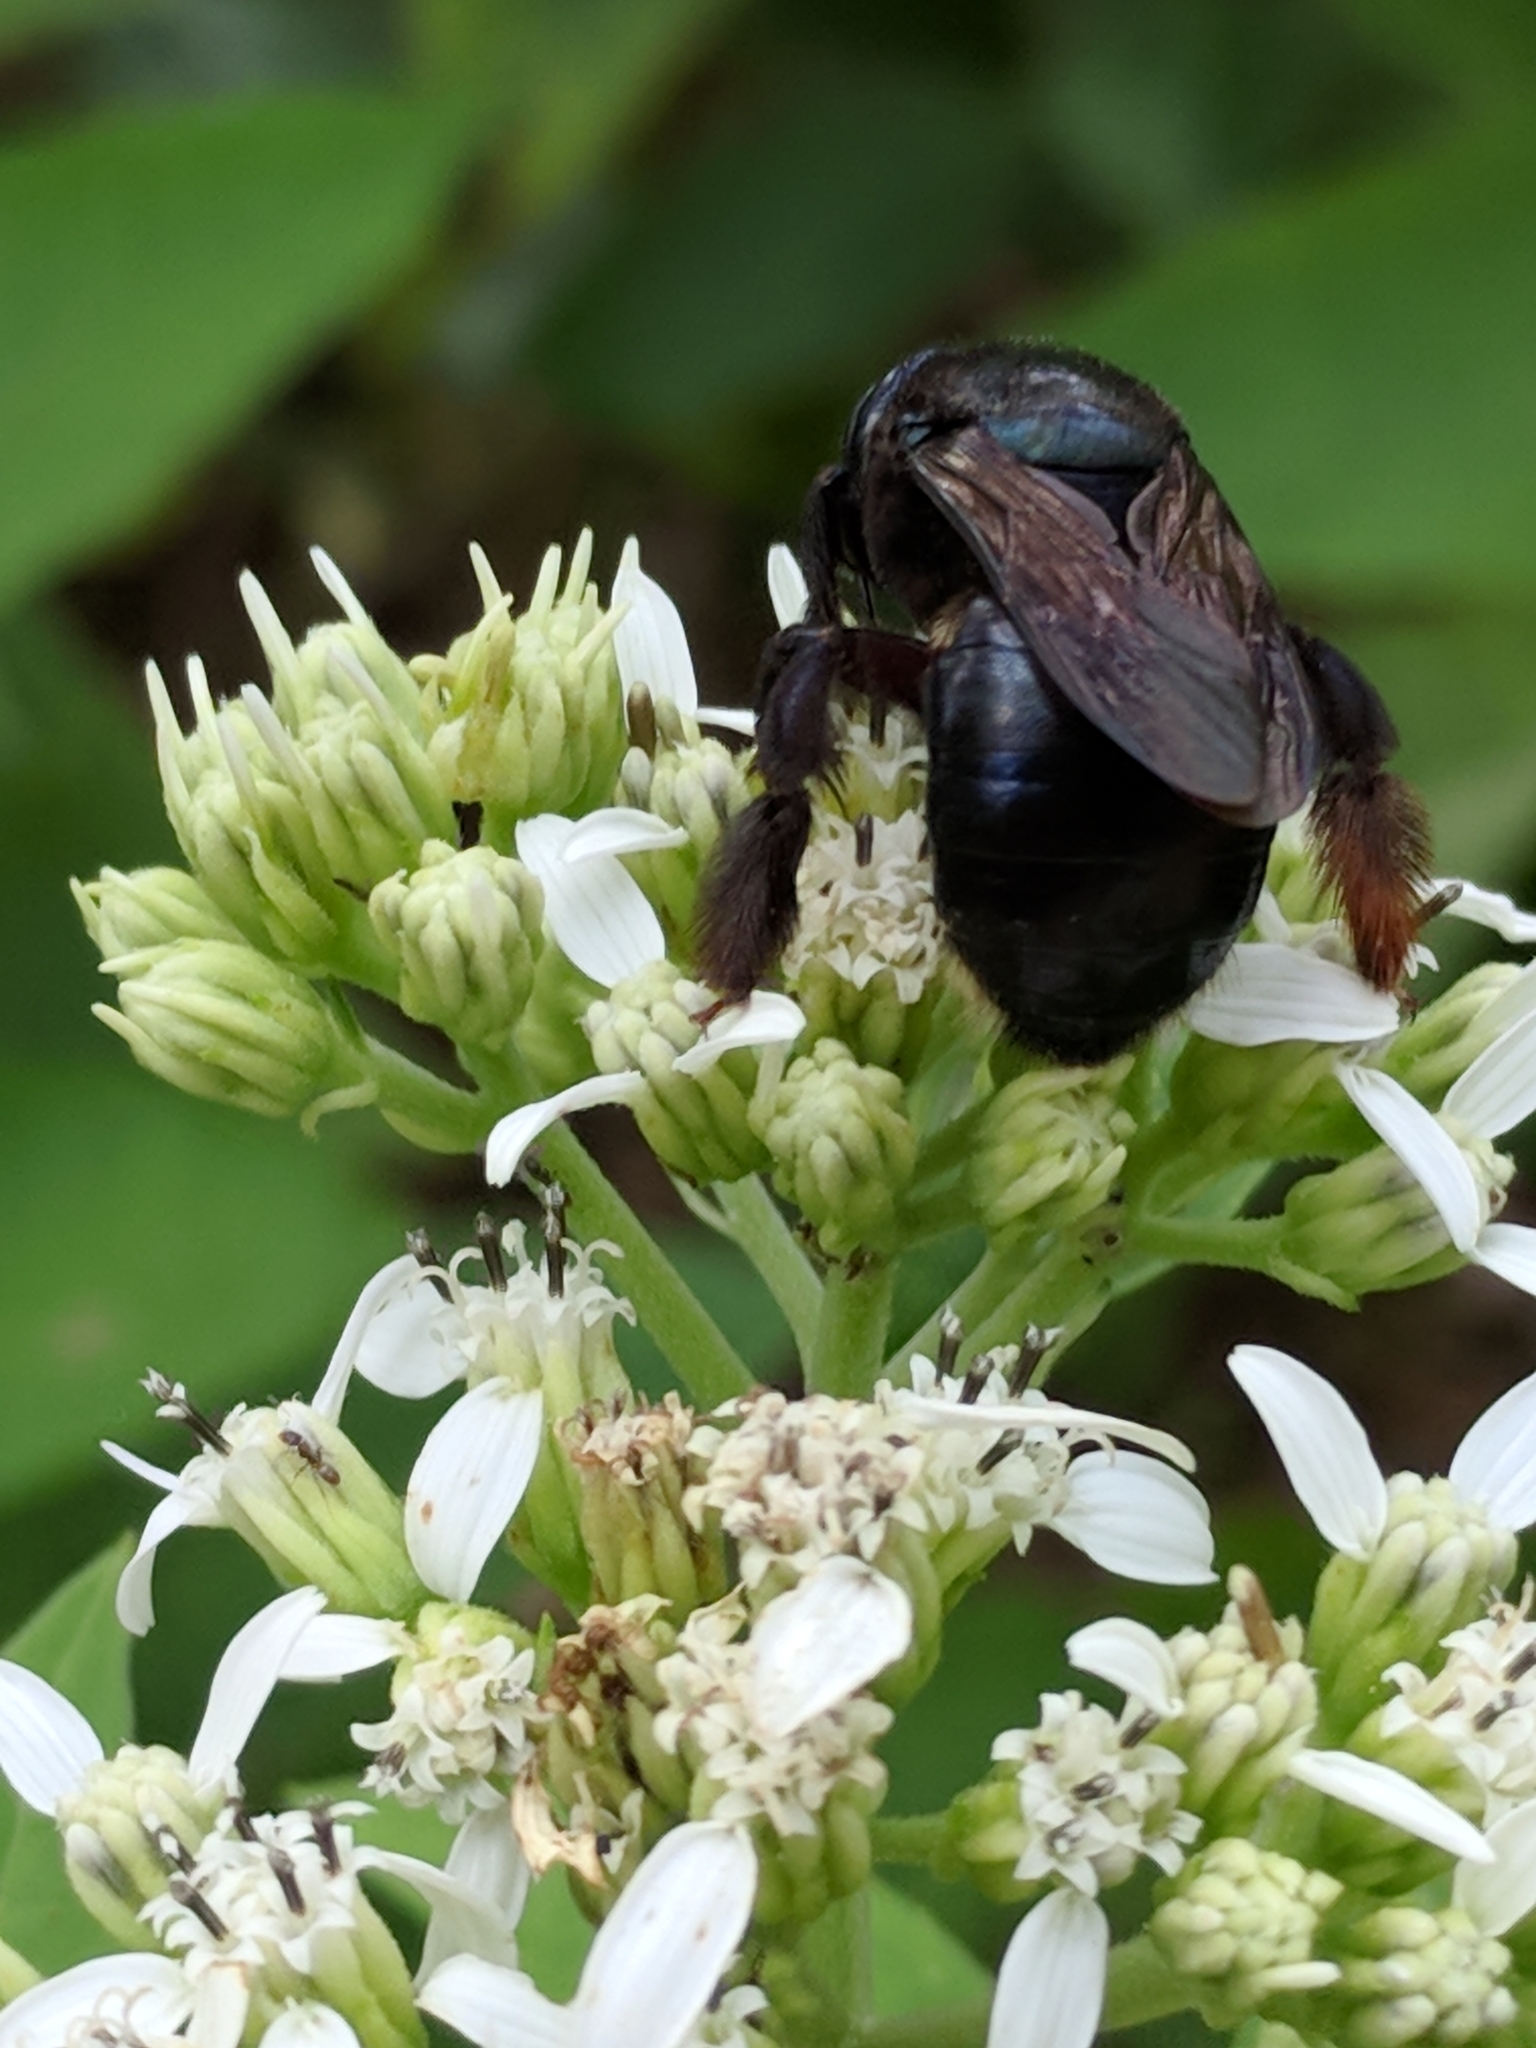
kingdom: Animalia
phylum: Arthropoda
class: Insecta
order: Hymenoptera
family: Apidae
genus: Xylocopa
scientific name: Xylocopa micans
